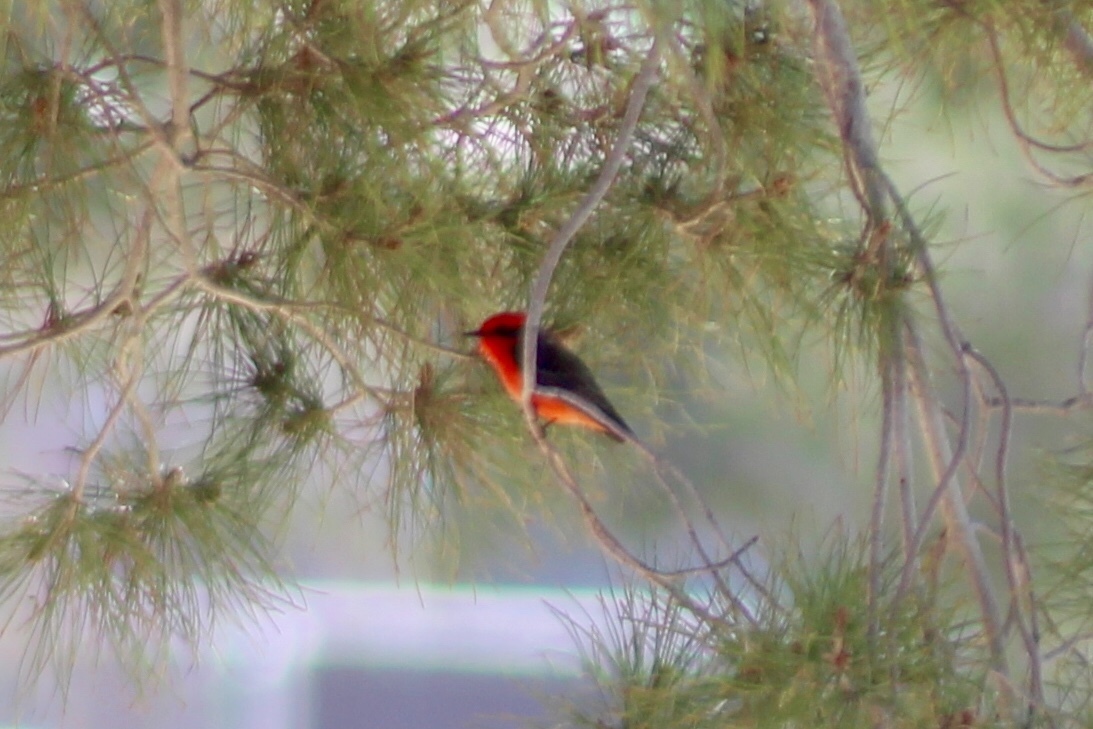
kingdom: Animalia
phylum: Chordata
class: Aves
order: Passeriformes
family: Tyrannidae
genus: Pyrocephalus
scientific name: Pyrocephalus rubinus
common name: Vermilion flycatcher
